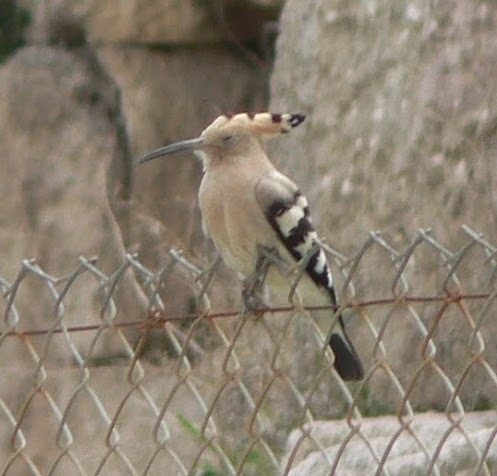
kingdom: Animalia
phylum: Chordata
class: Aves
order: Bucerotiformes
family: Upupidae
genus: Upupa
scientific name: Upupa epops
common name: Eurasian hoopoe
